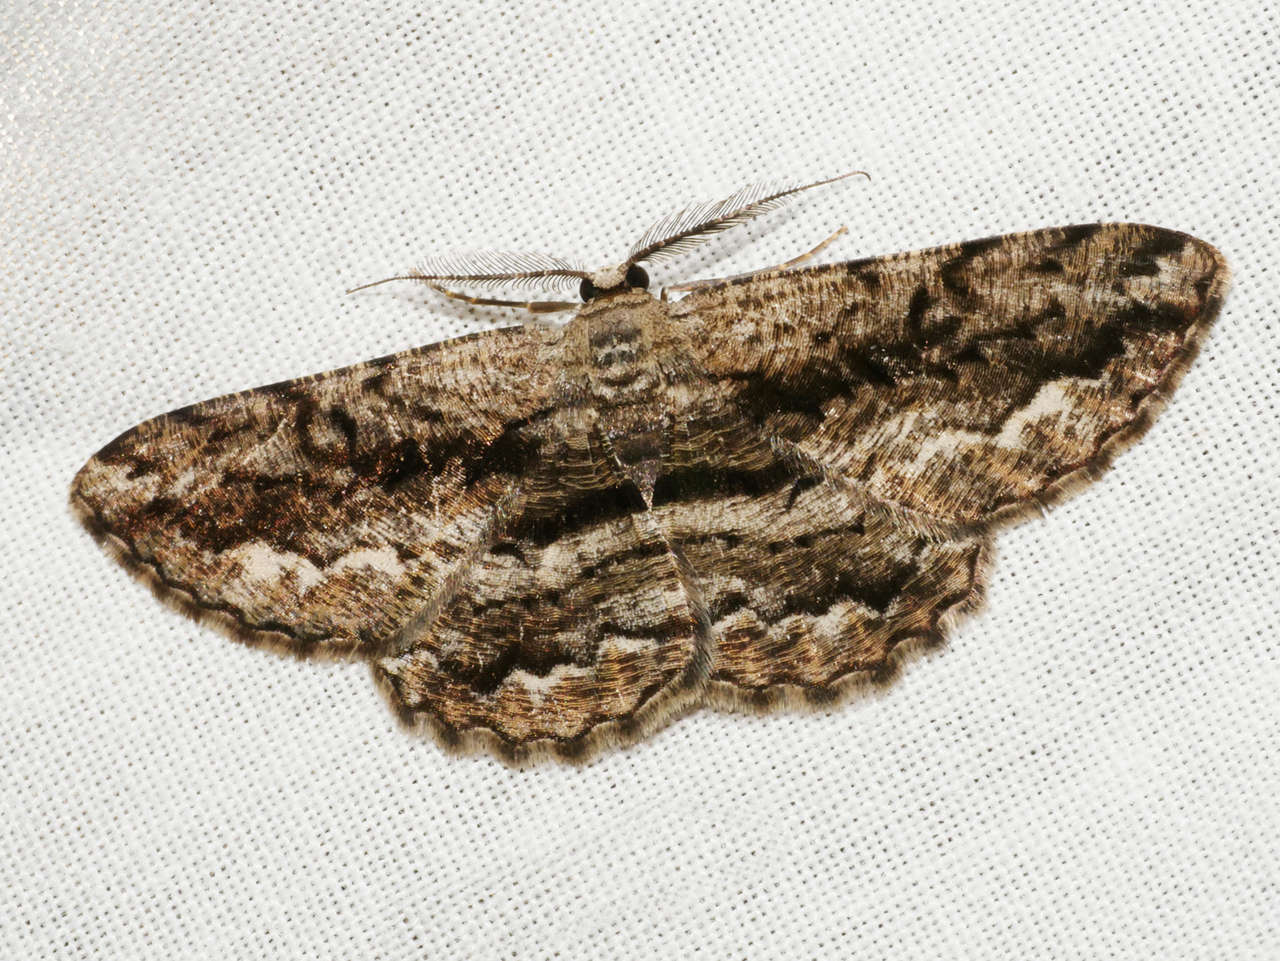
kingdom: Animalia
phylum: Arthropoda
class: Insecta
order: Lepidoptera
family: Geometridae
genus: Scioglyptis
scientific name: Scioglyptis canescaria
